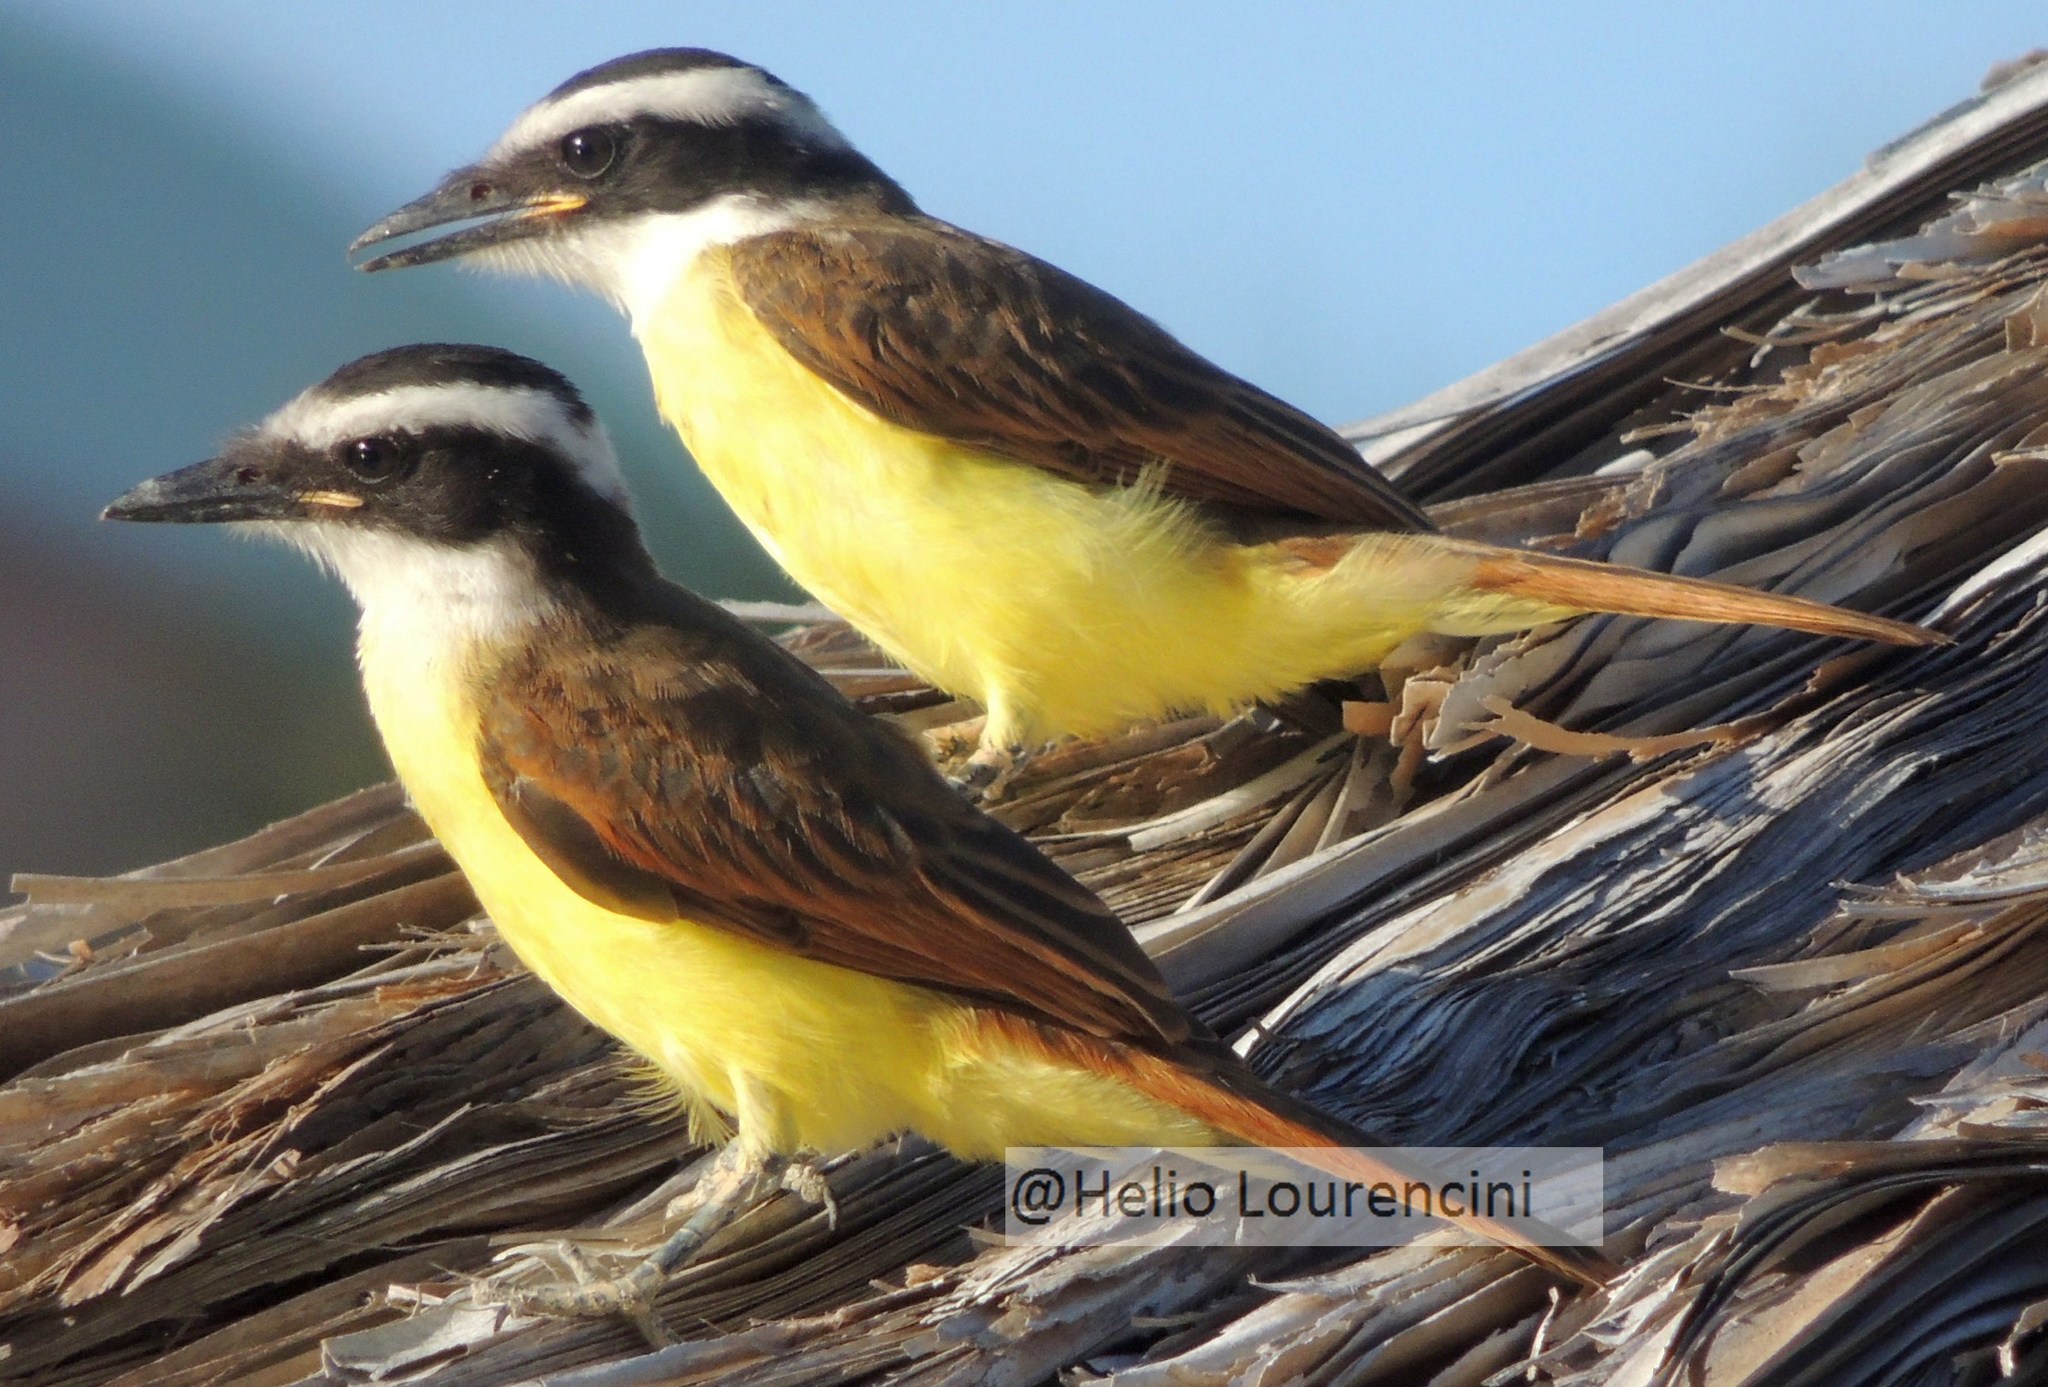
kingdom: Animalia
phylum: Chordata
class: Aves
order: Passeriformes
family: Tyrannidae
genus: Pitangus
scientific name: Pitangus sulphuratus
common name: Great kiskadee
